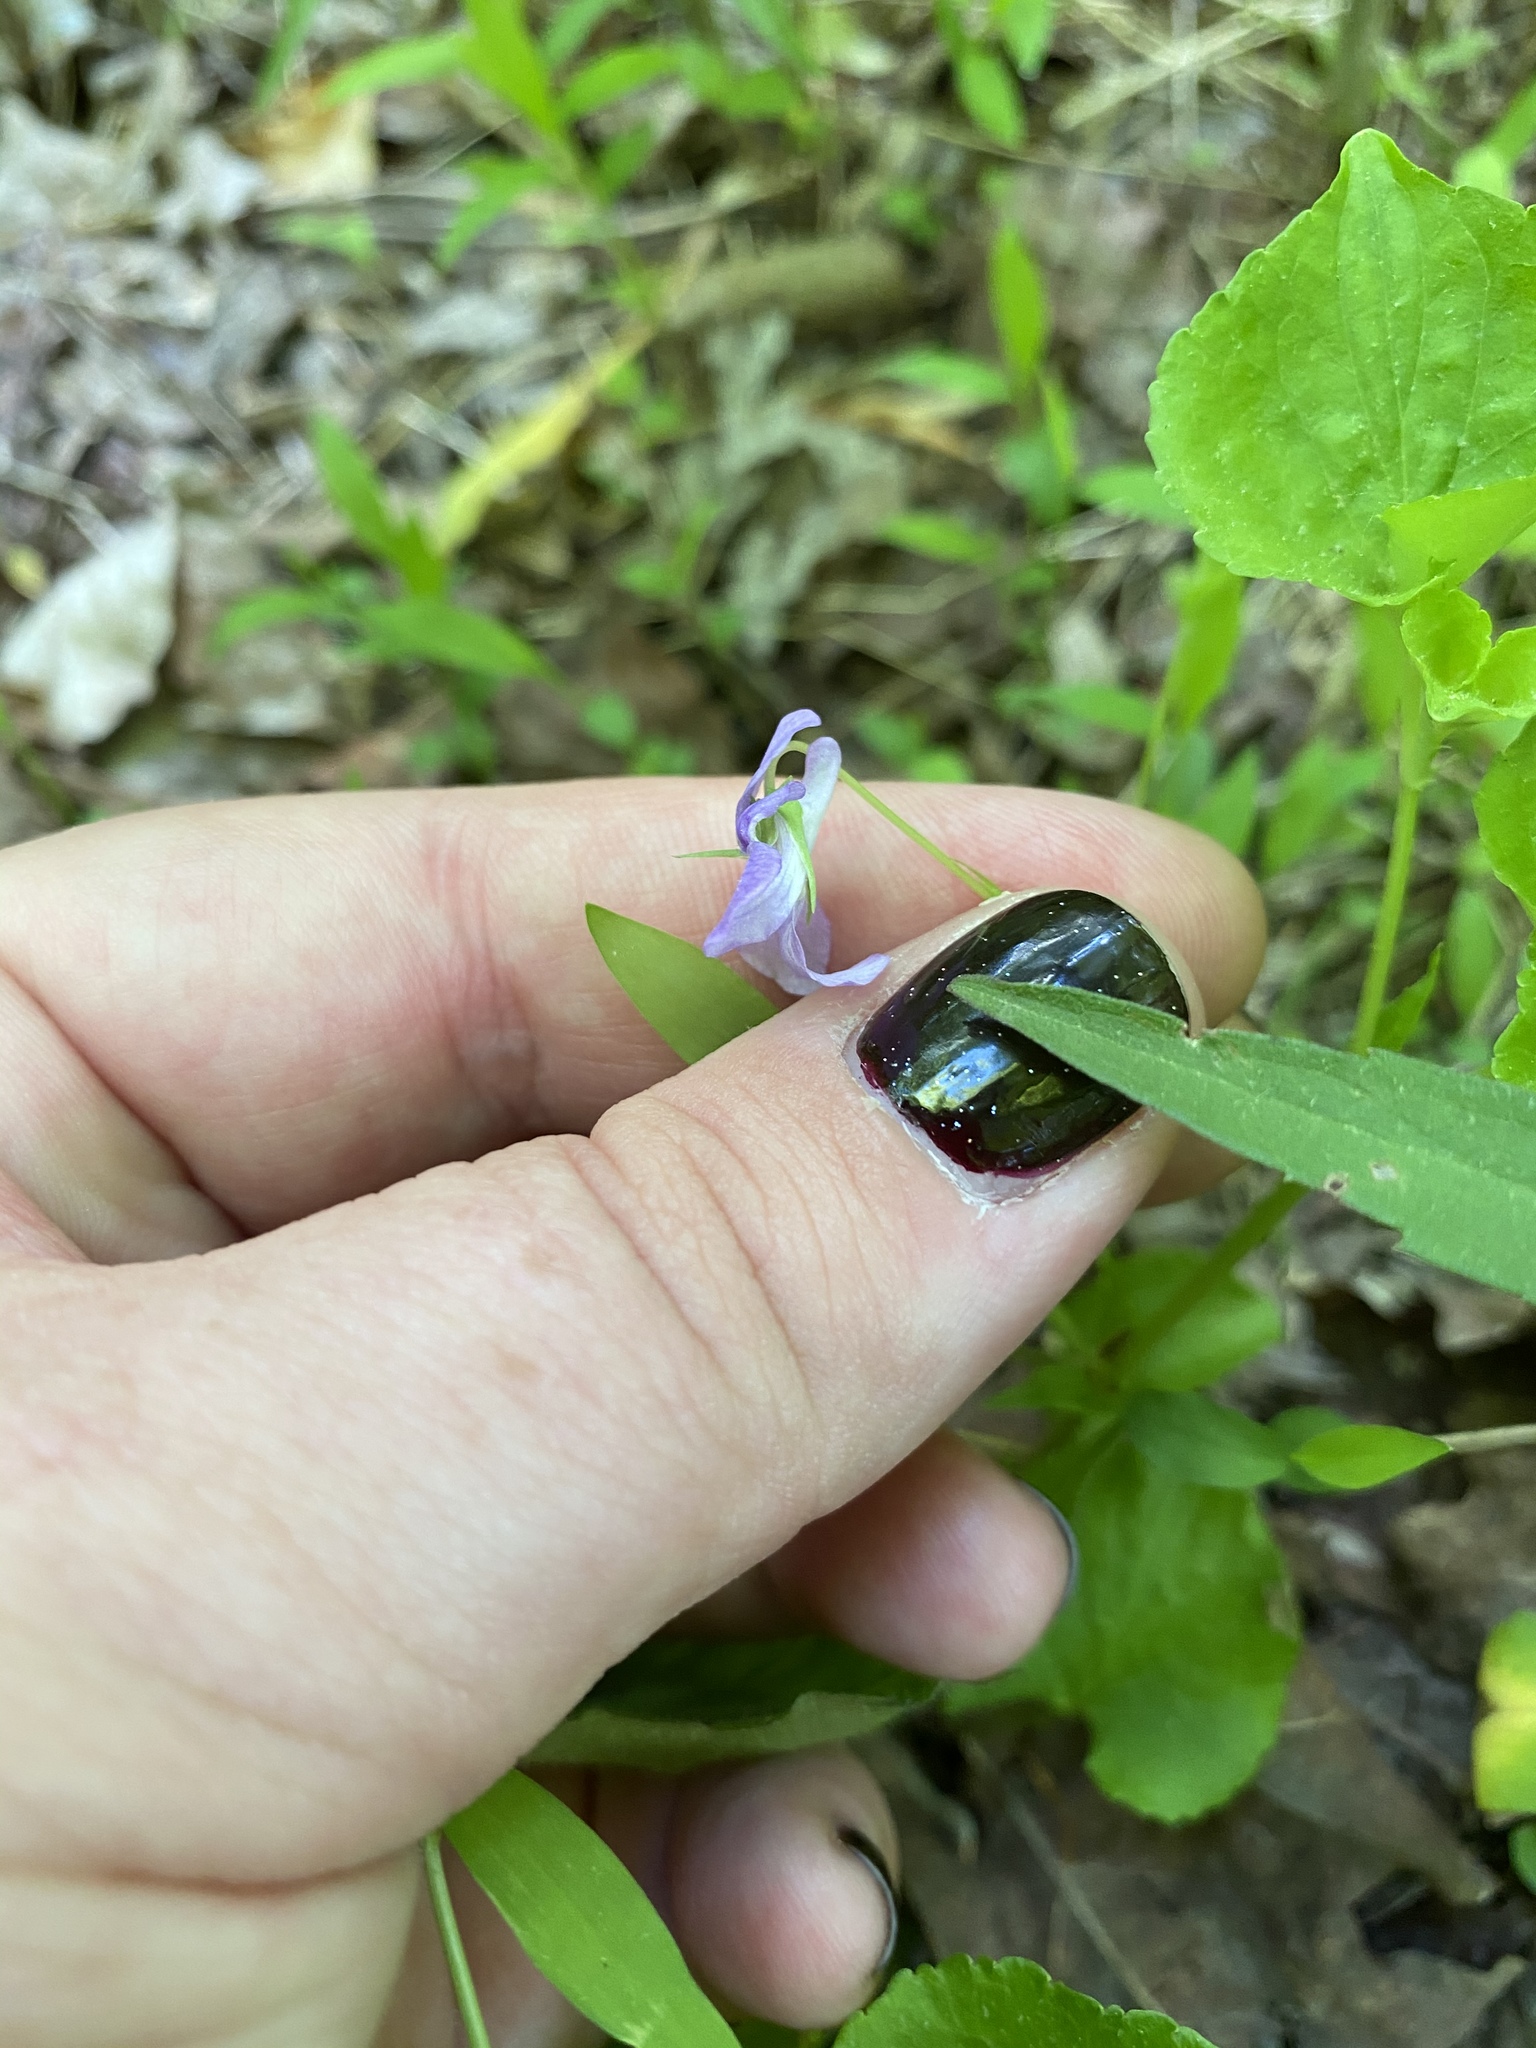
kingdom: Plantae
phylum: Tracheophyta
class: Magnoliopsida
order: Malpighiales
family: Violaceae
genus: Viola
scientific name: Viola labradorica
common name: Labrador violet
